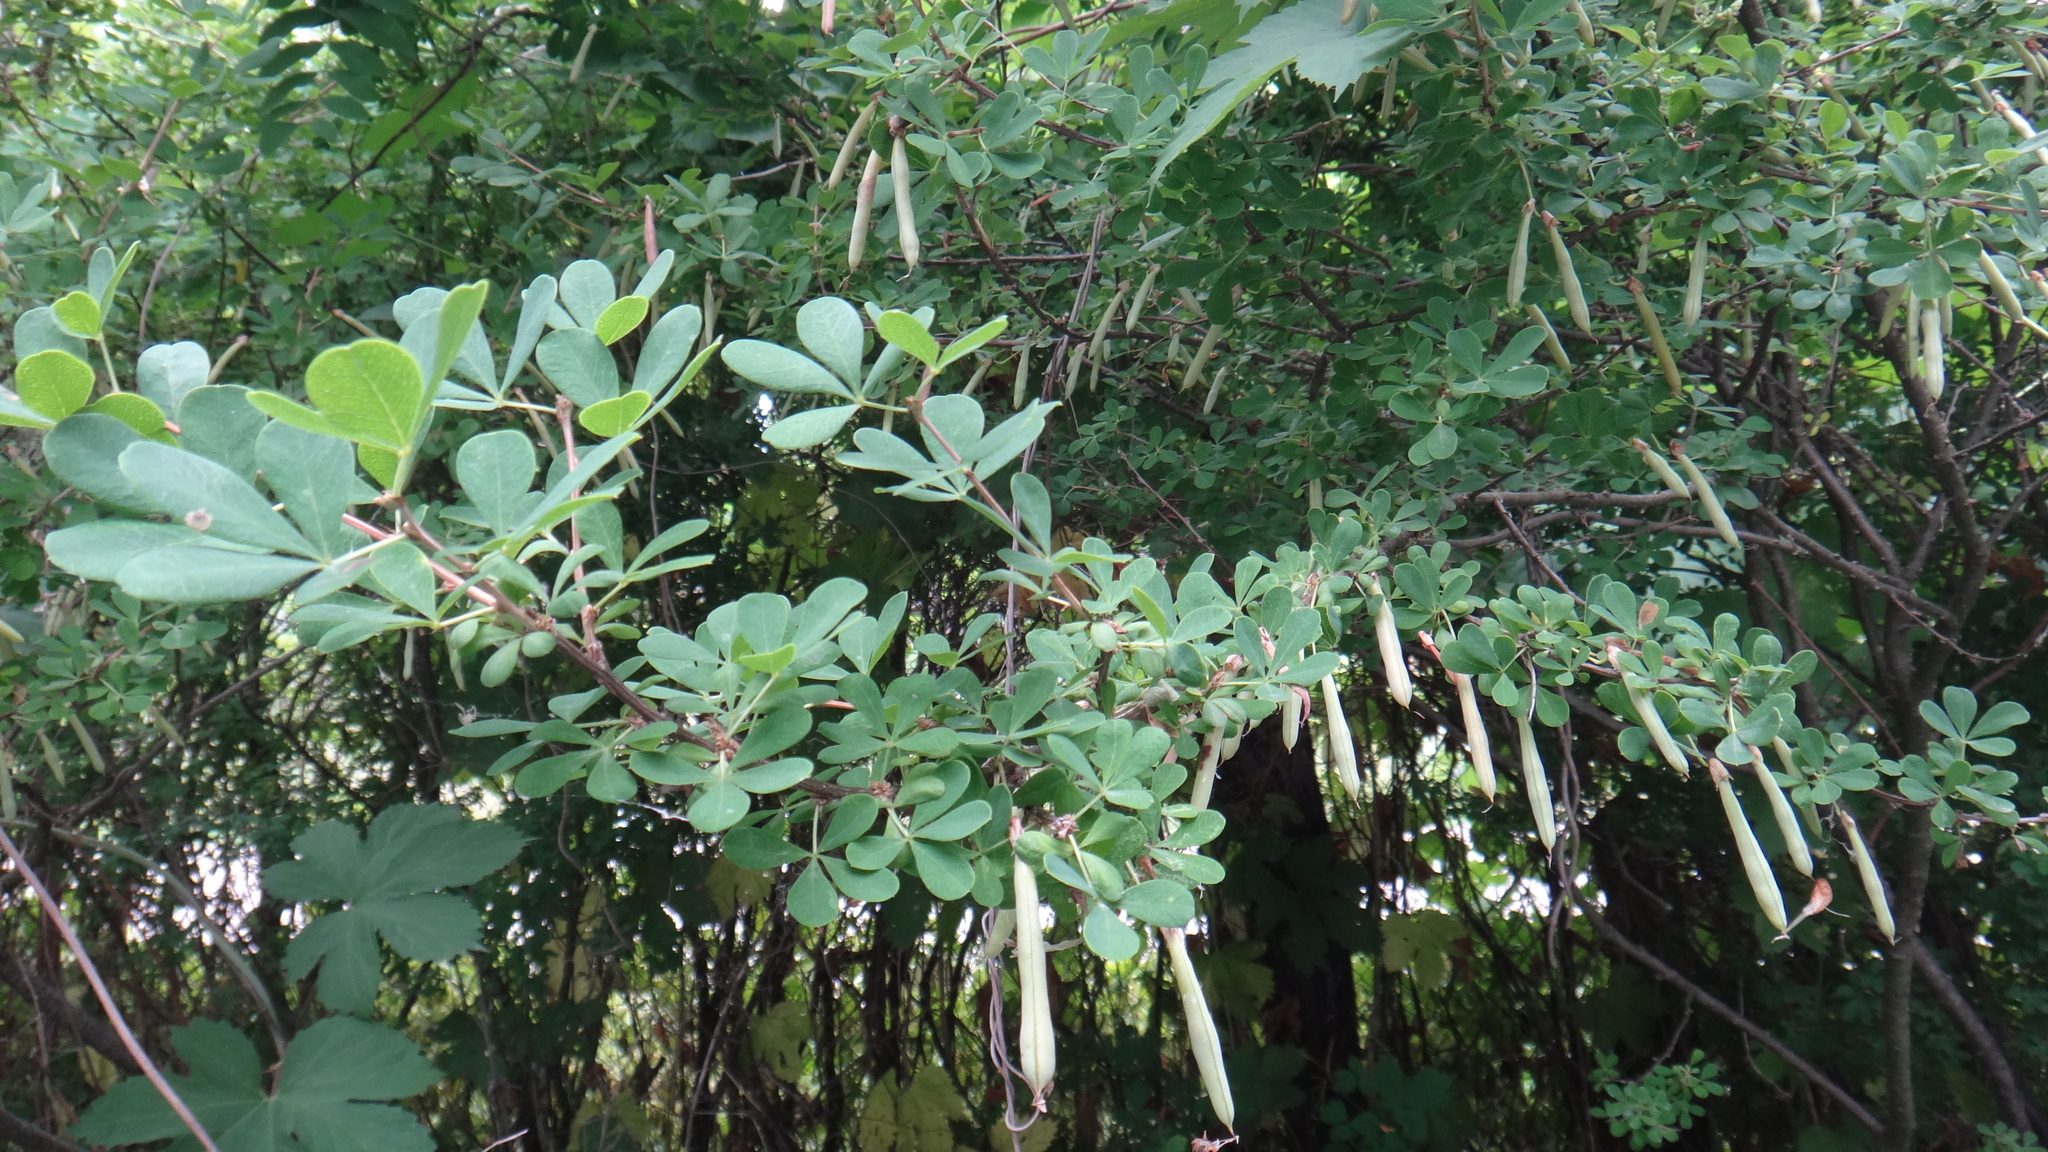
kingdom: Plantae
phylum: Tracheophyta
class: Magnoliopsida
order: Fabales
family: Fabaceae
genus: Caragana
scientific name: Caragana frutex
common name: Russian peashrub
